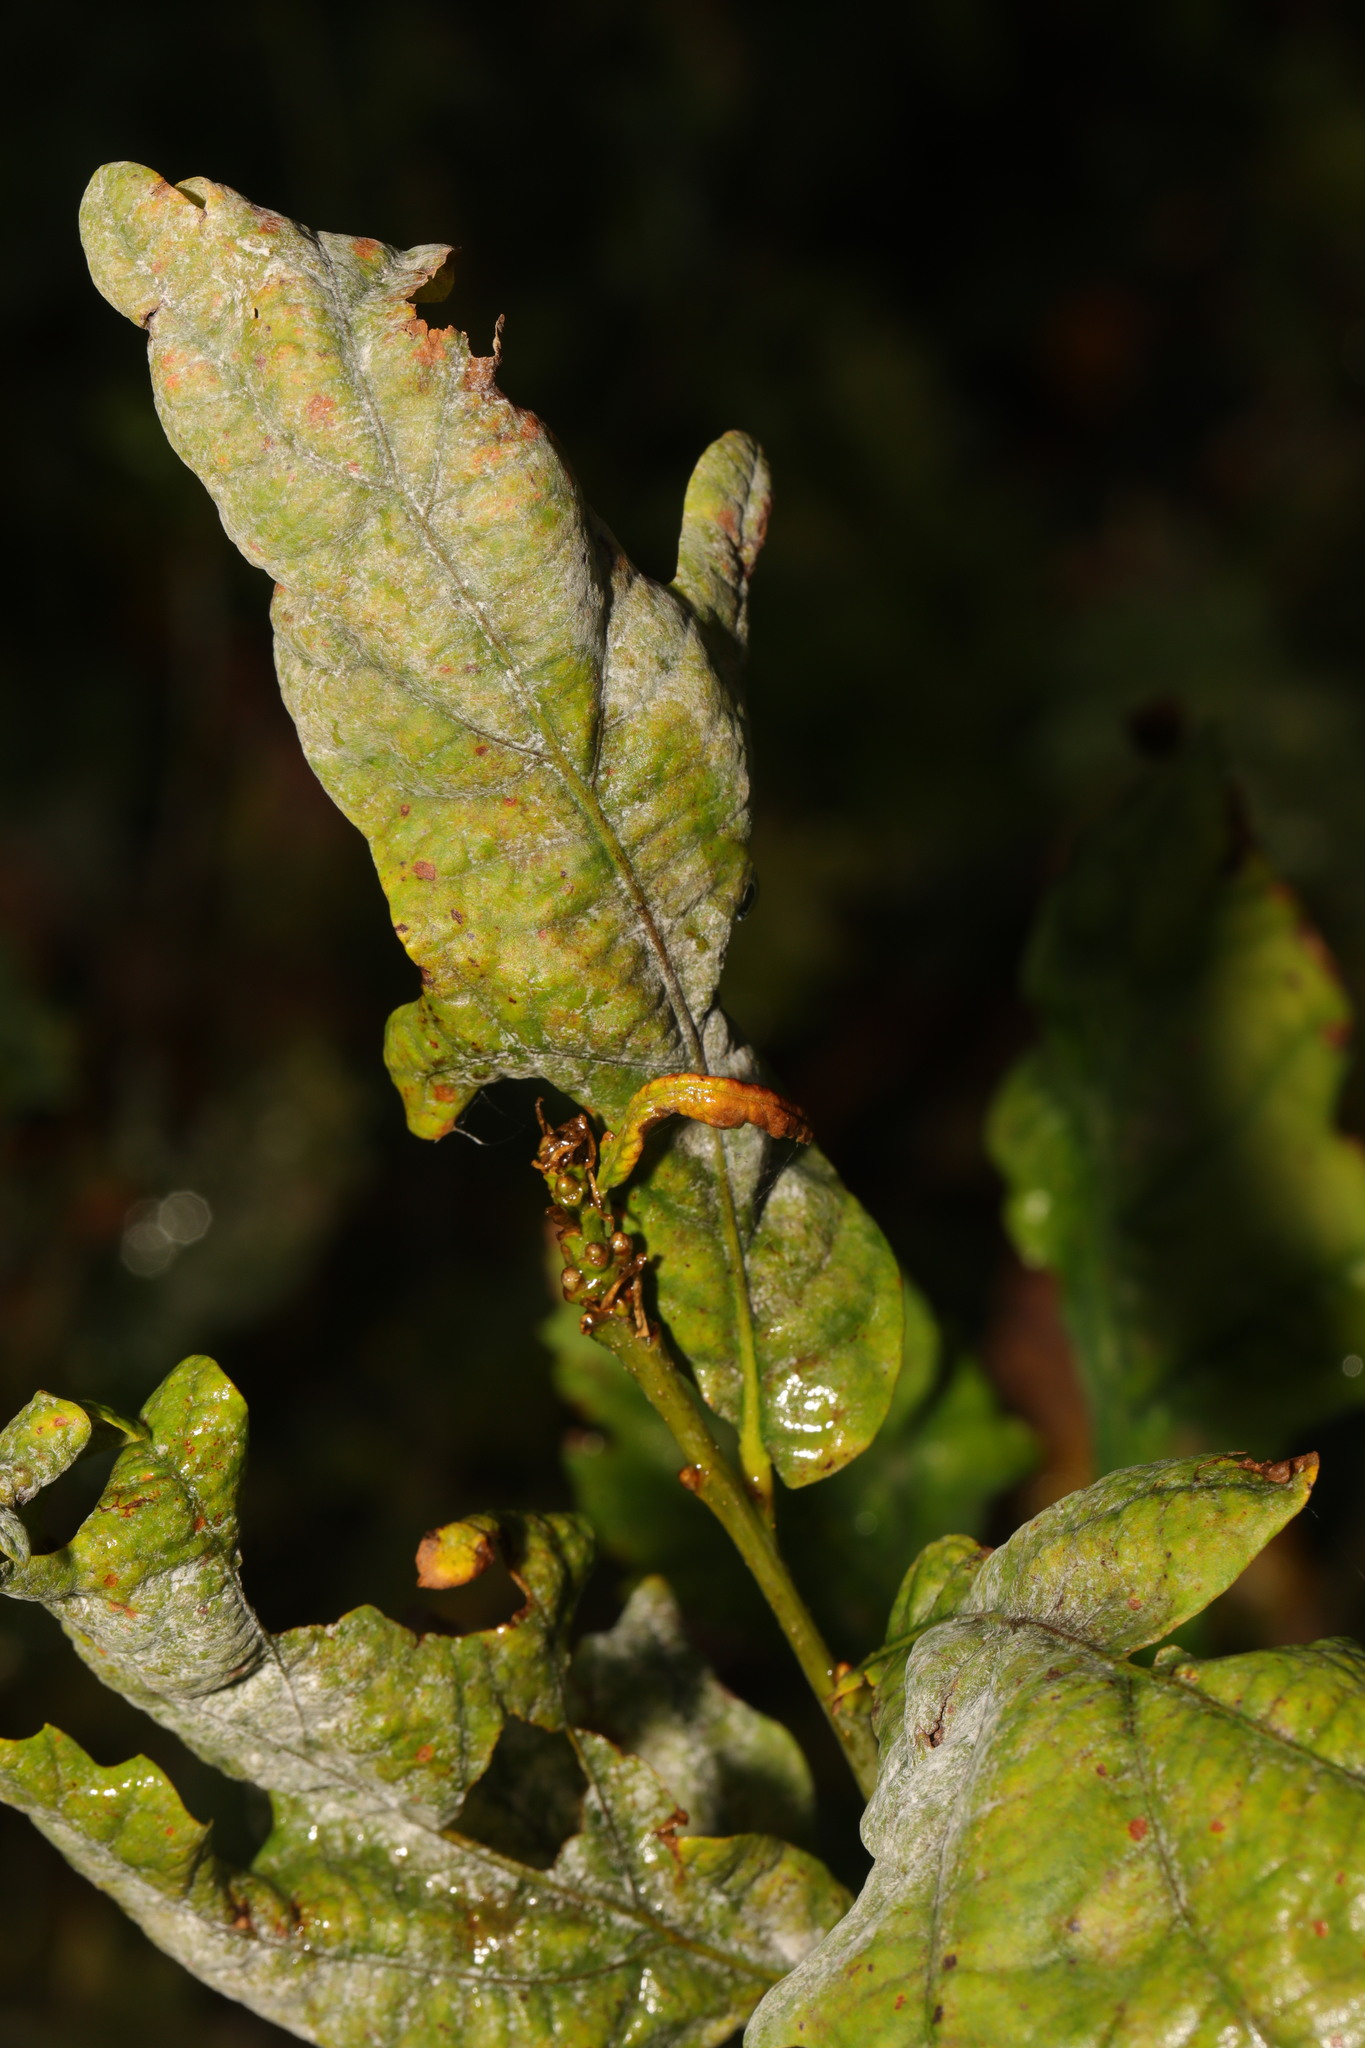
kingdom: Fungi
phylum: Ascomycota
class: Leotiomycetes
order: Helotiales
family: Erysiphaceae
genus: Erysiphe
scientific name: Erysiphe alphitoides
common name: Oak mildew
